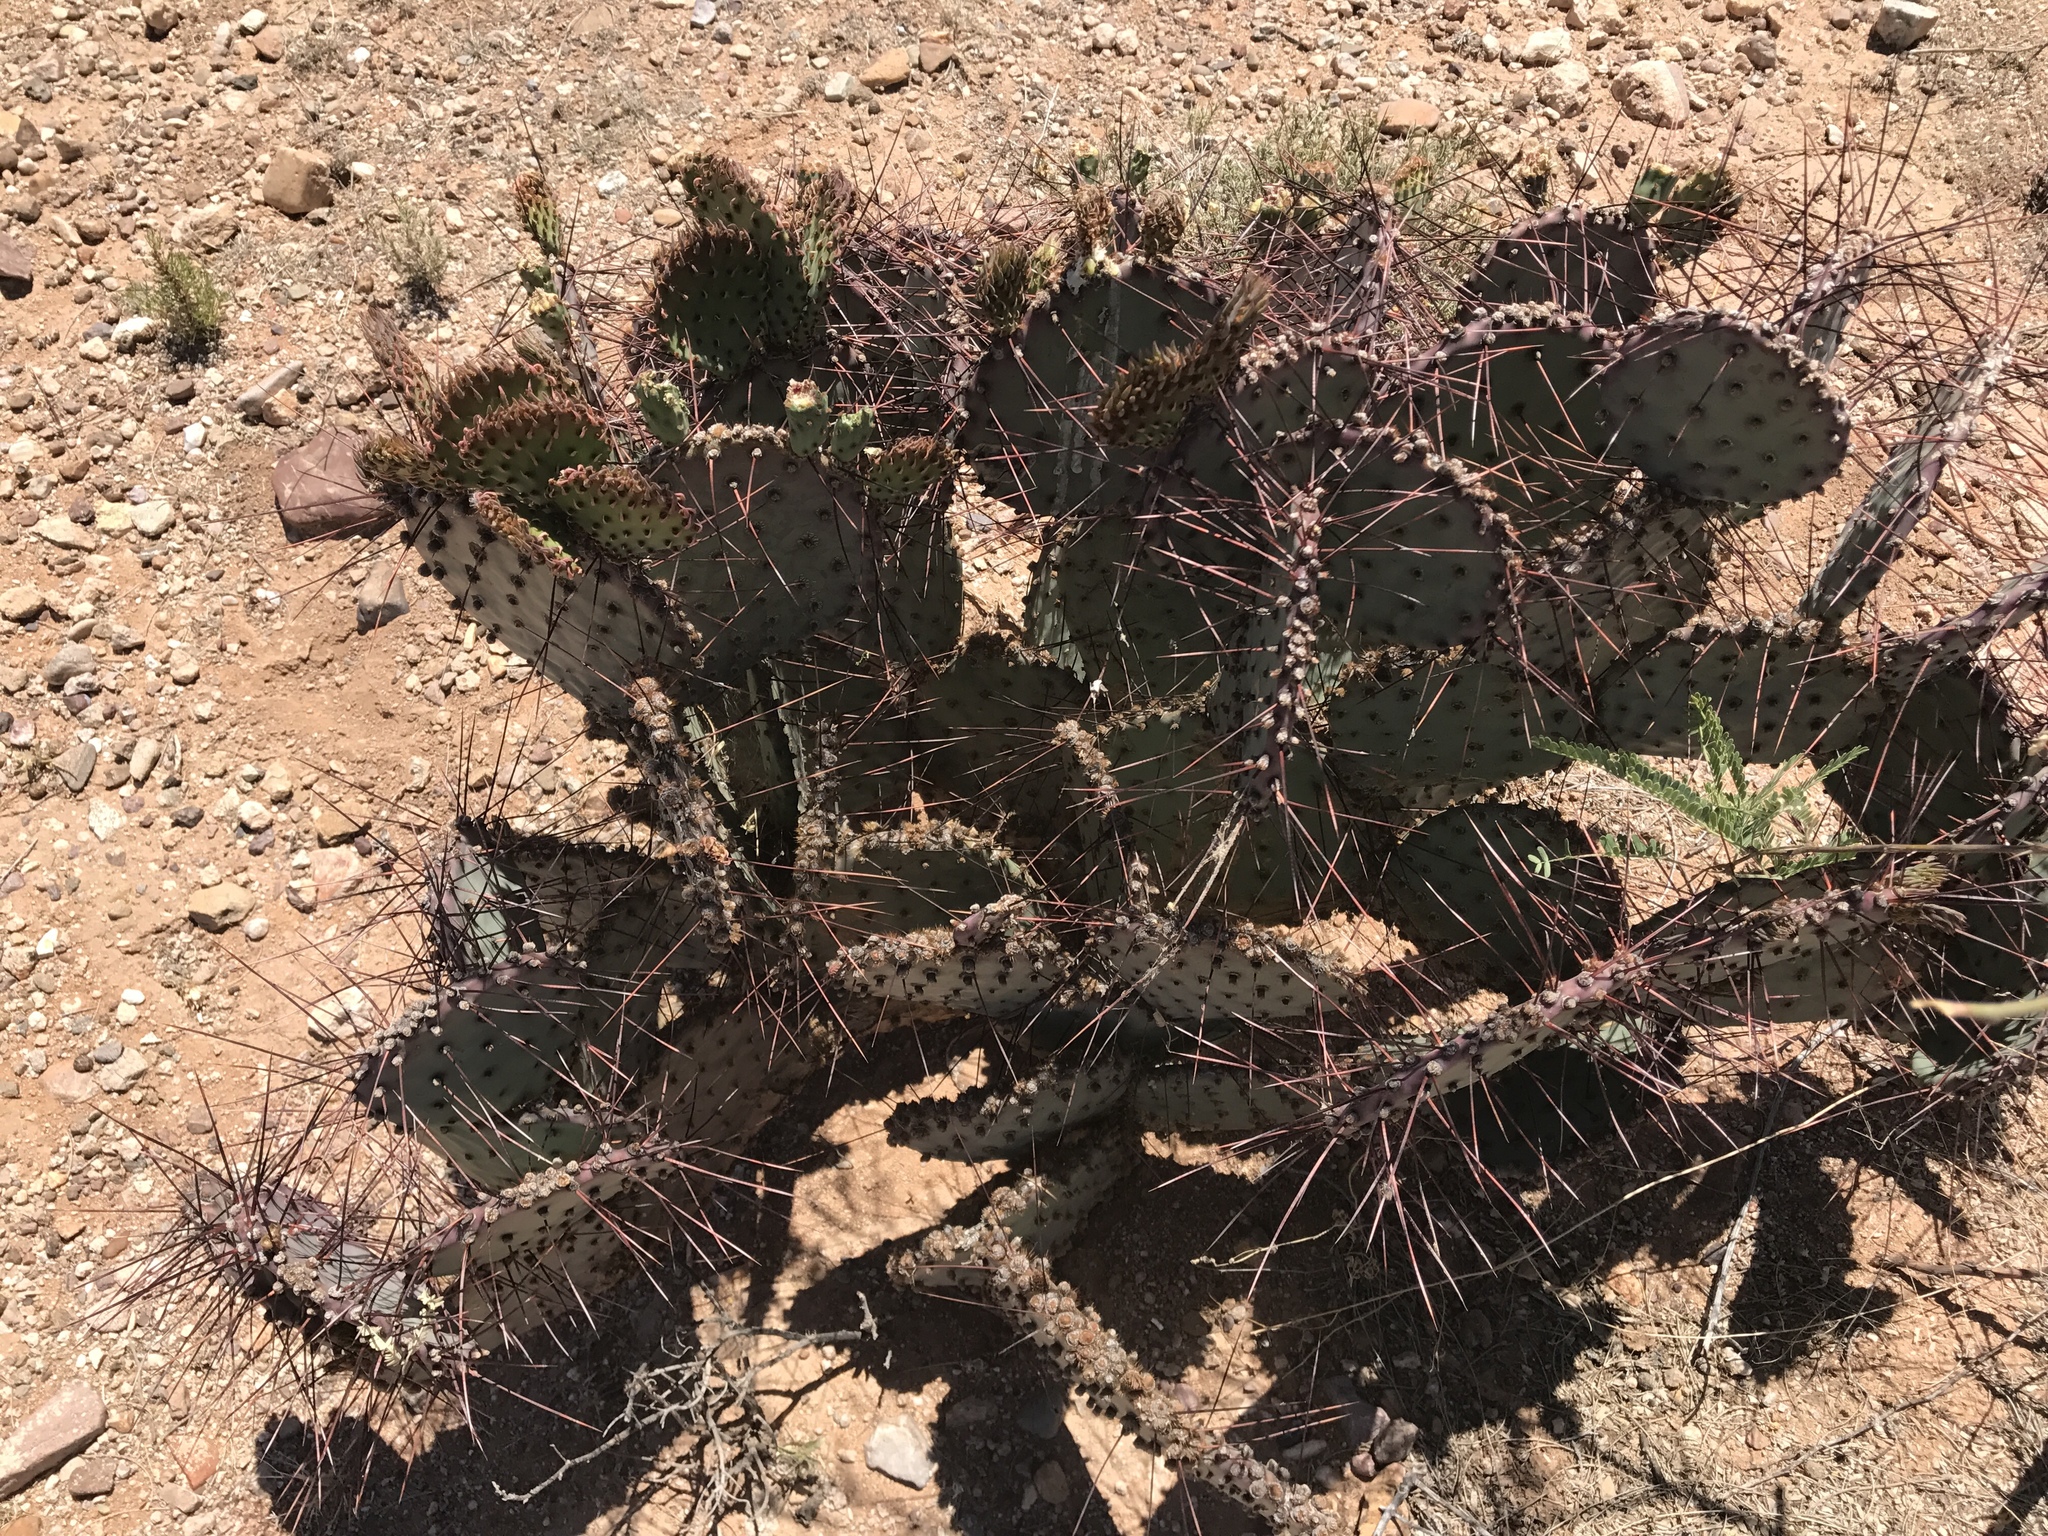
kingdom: Plantae
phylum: Tracheophyta
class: Magnoliopsida
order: Caryophyllales
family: Cactaceae
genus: Opuntia
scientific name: Opuntia macrocentra
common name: Purple prickly-pear
